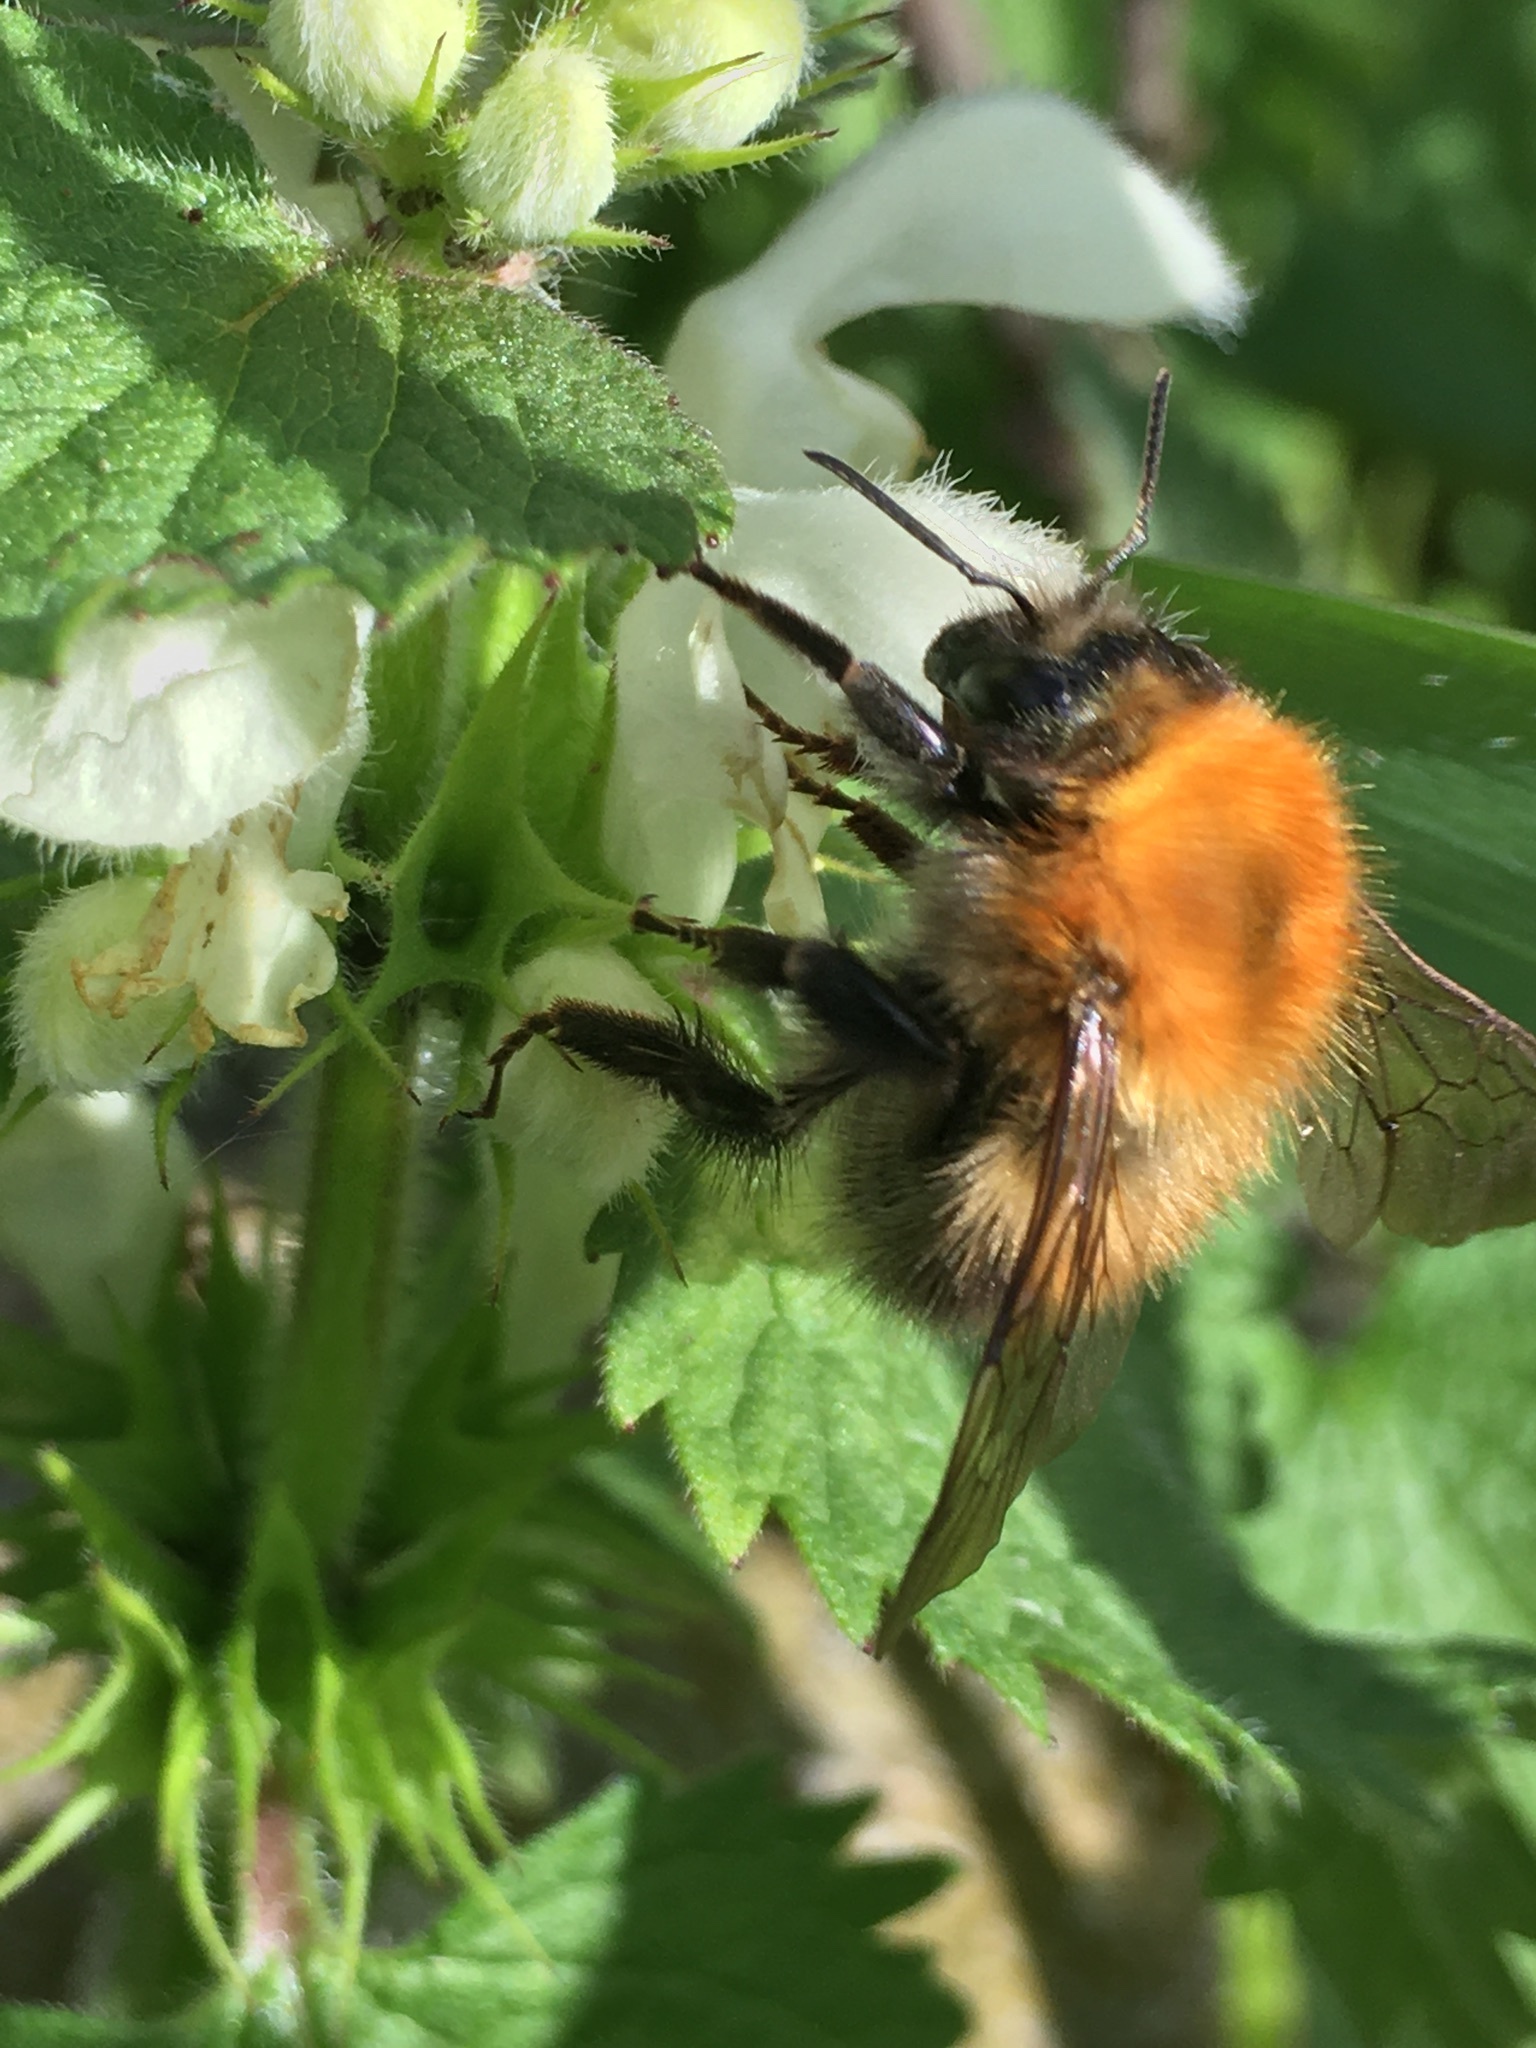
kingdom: Animalia
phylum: Arthropoda
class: Insecta
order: Hymenoptera
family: Apidae
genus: Bombus
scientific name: Bombus pascuorum
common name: Common carder bee
